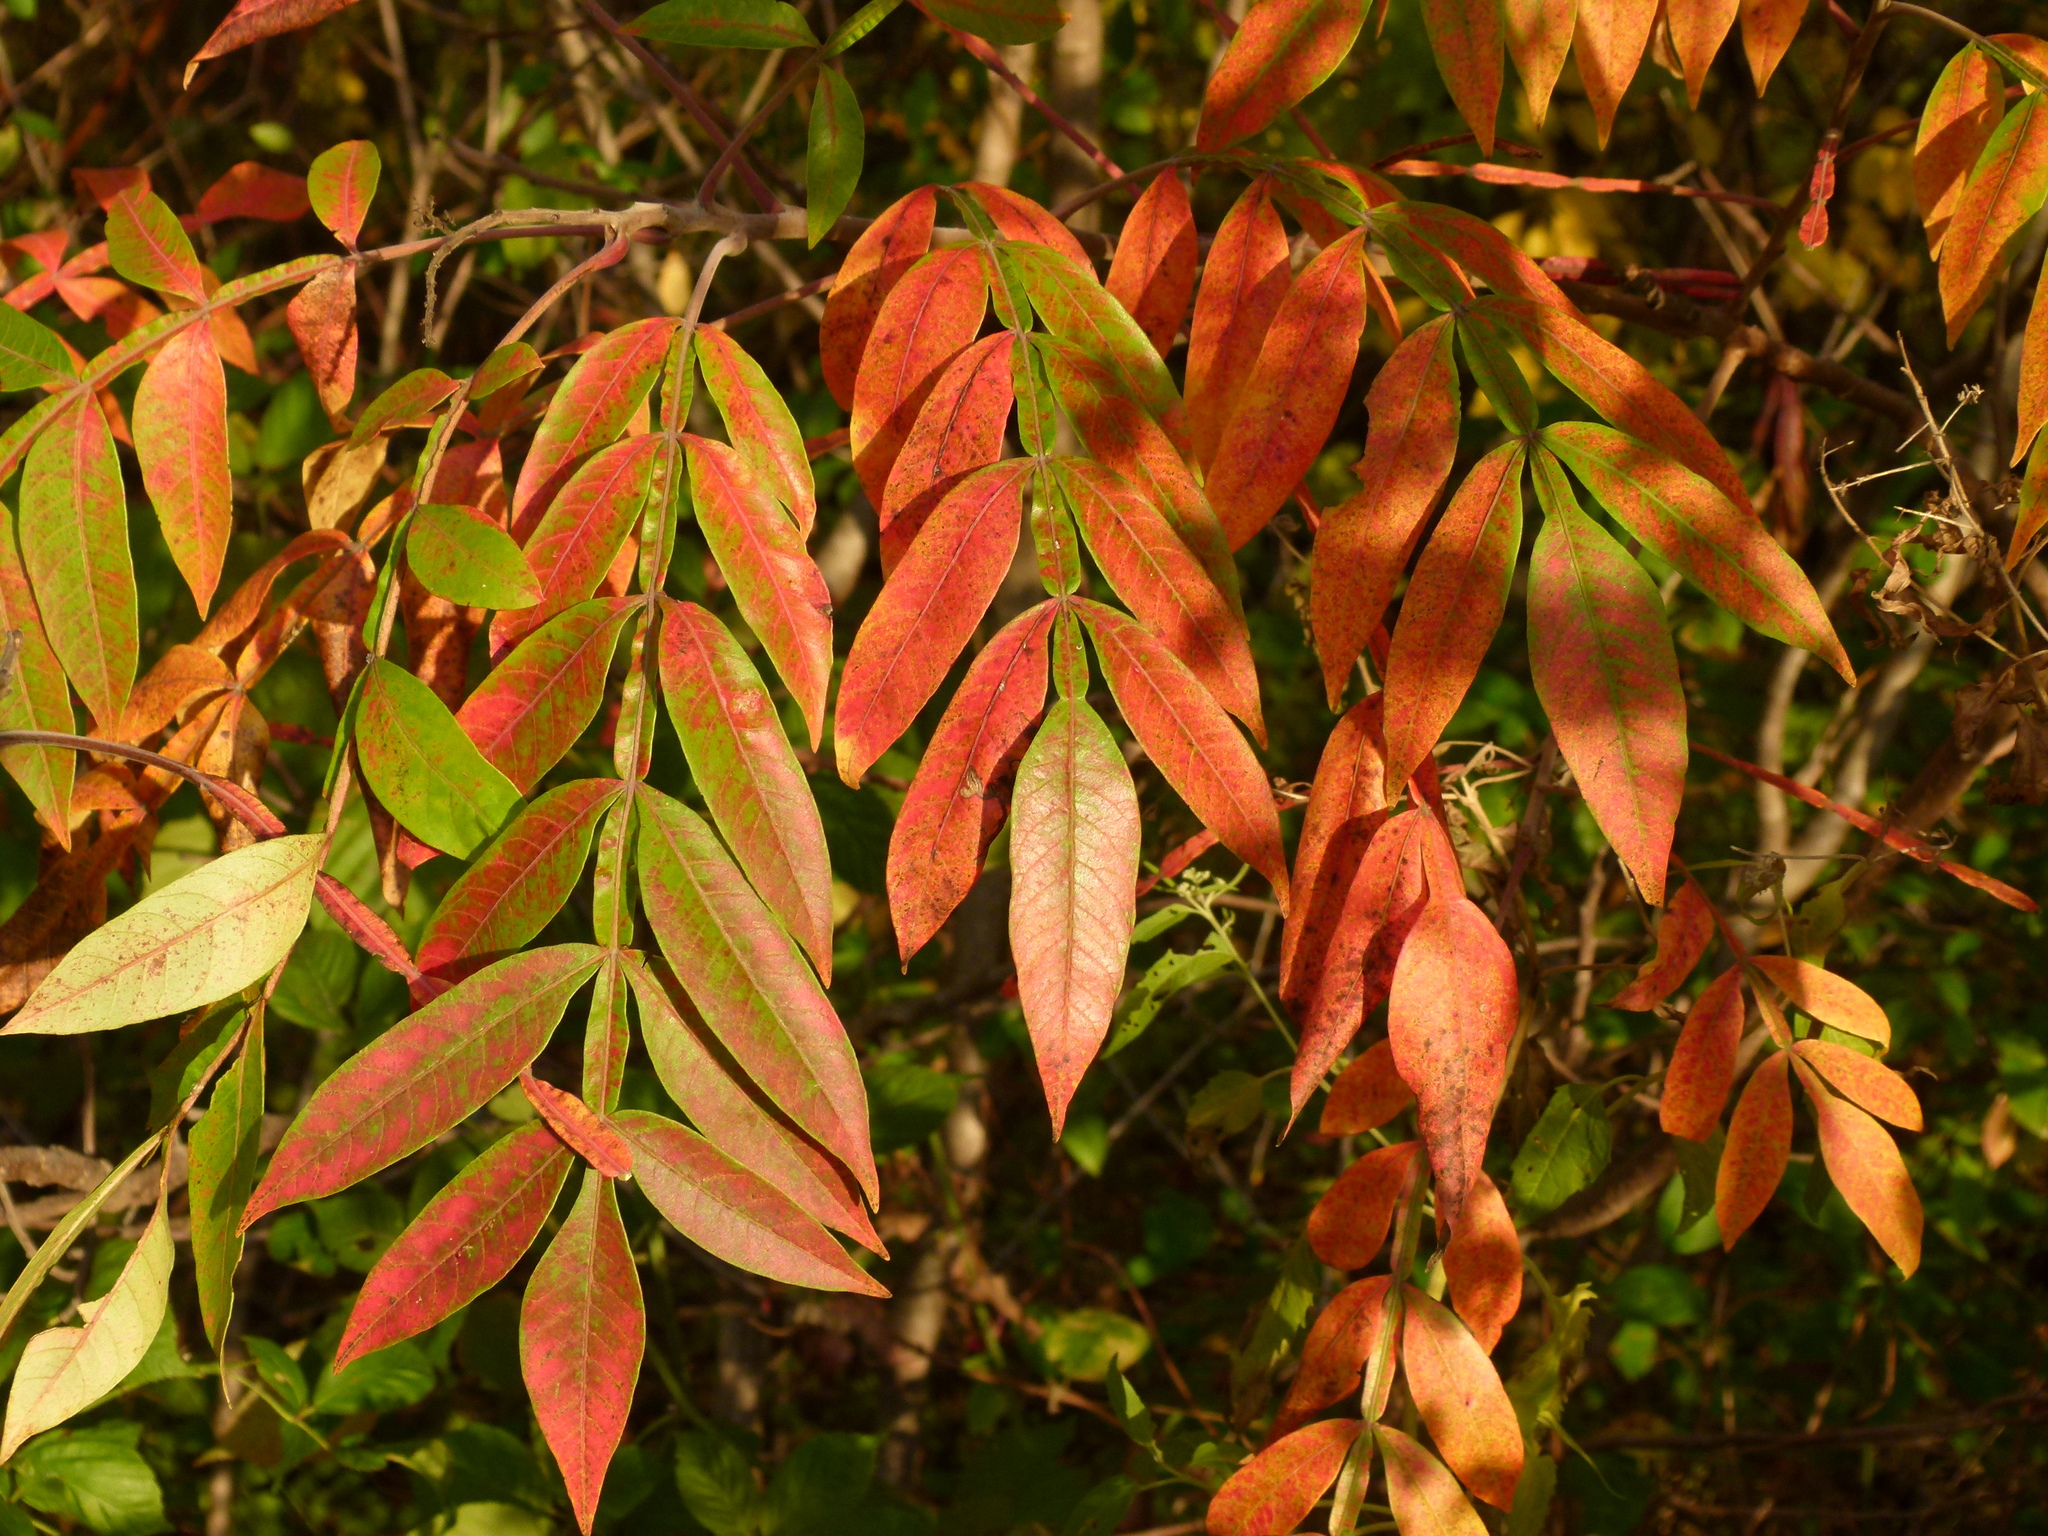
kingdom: Plantae
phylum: Tracheophyta
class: Magnoliopsida
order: Sapindales
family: Anacardiaceae
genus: Rhus
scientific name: Rhus copallina
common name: Shining sumac
